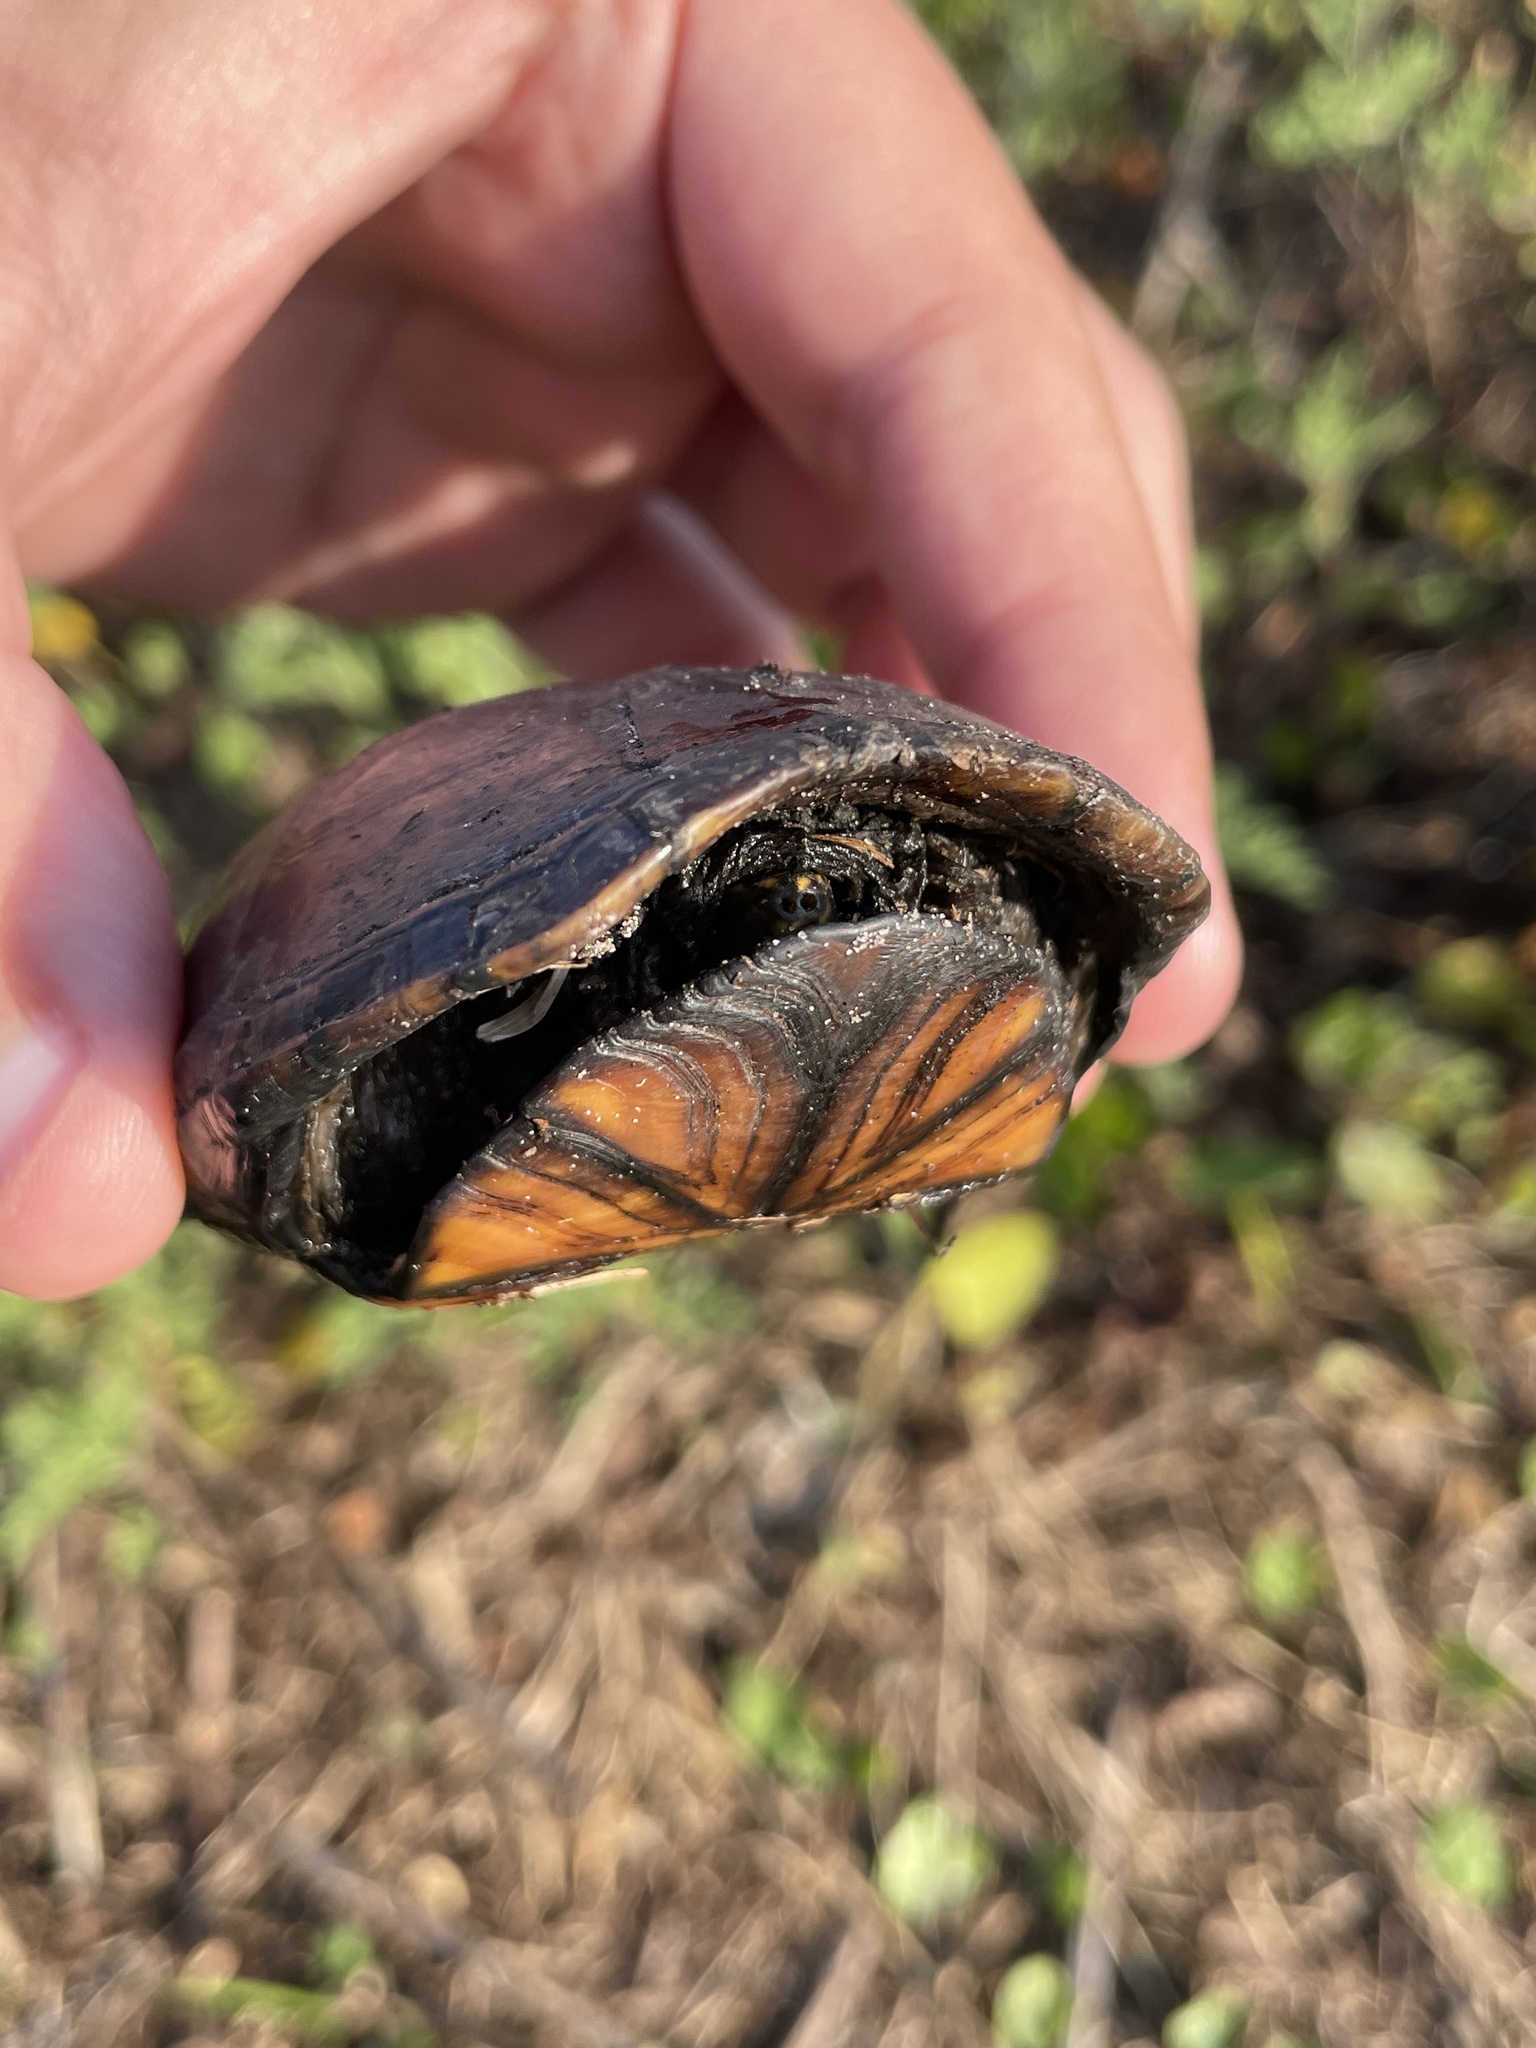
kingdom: Animalia
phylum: Chordata
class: Testudines
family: Kinosternidae
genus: Kinosternon
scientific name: Kinosternon subrubrum
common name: Eastern mud turtle
